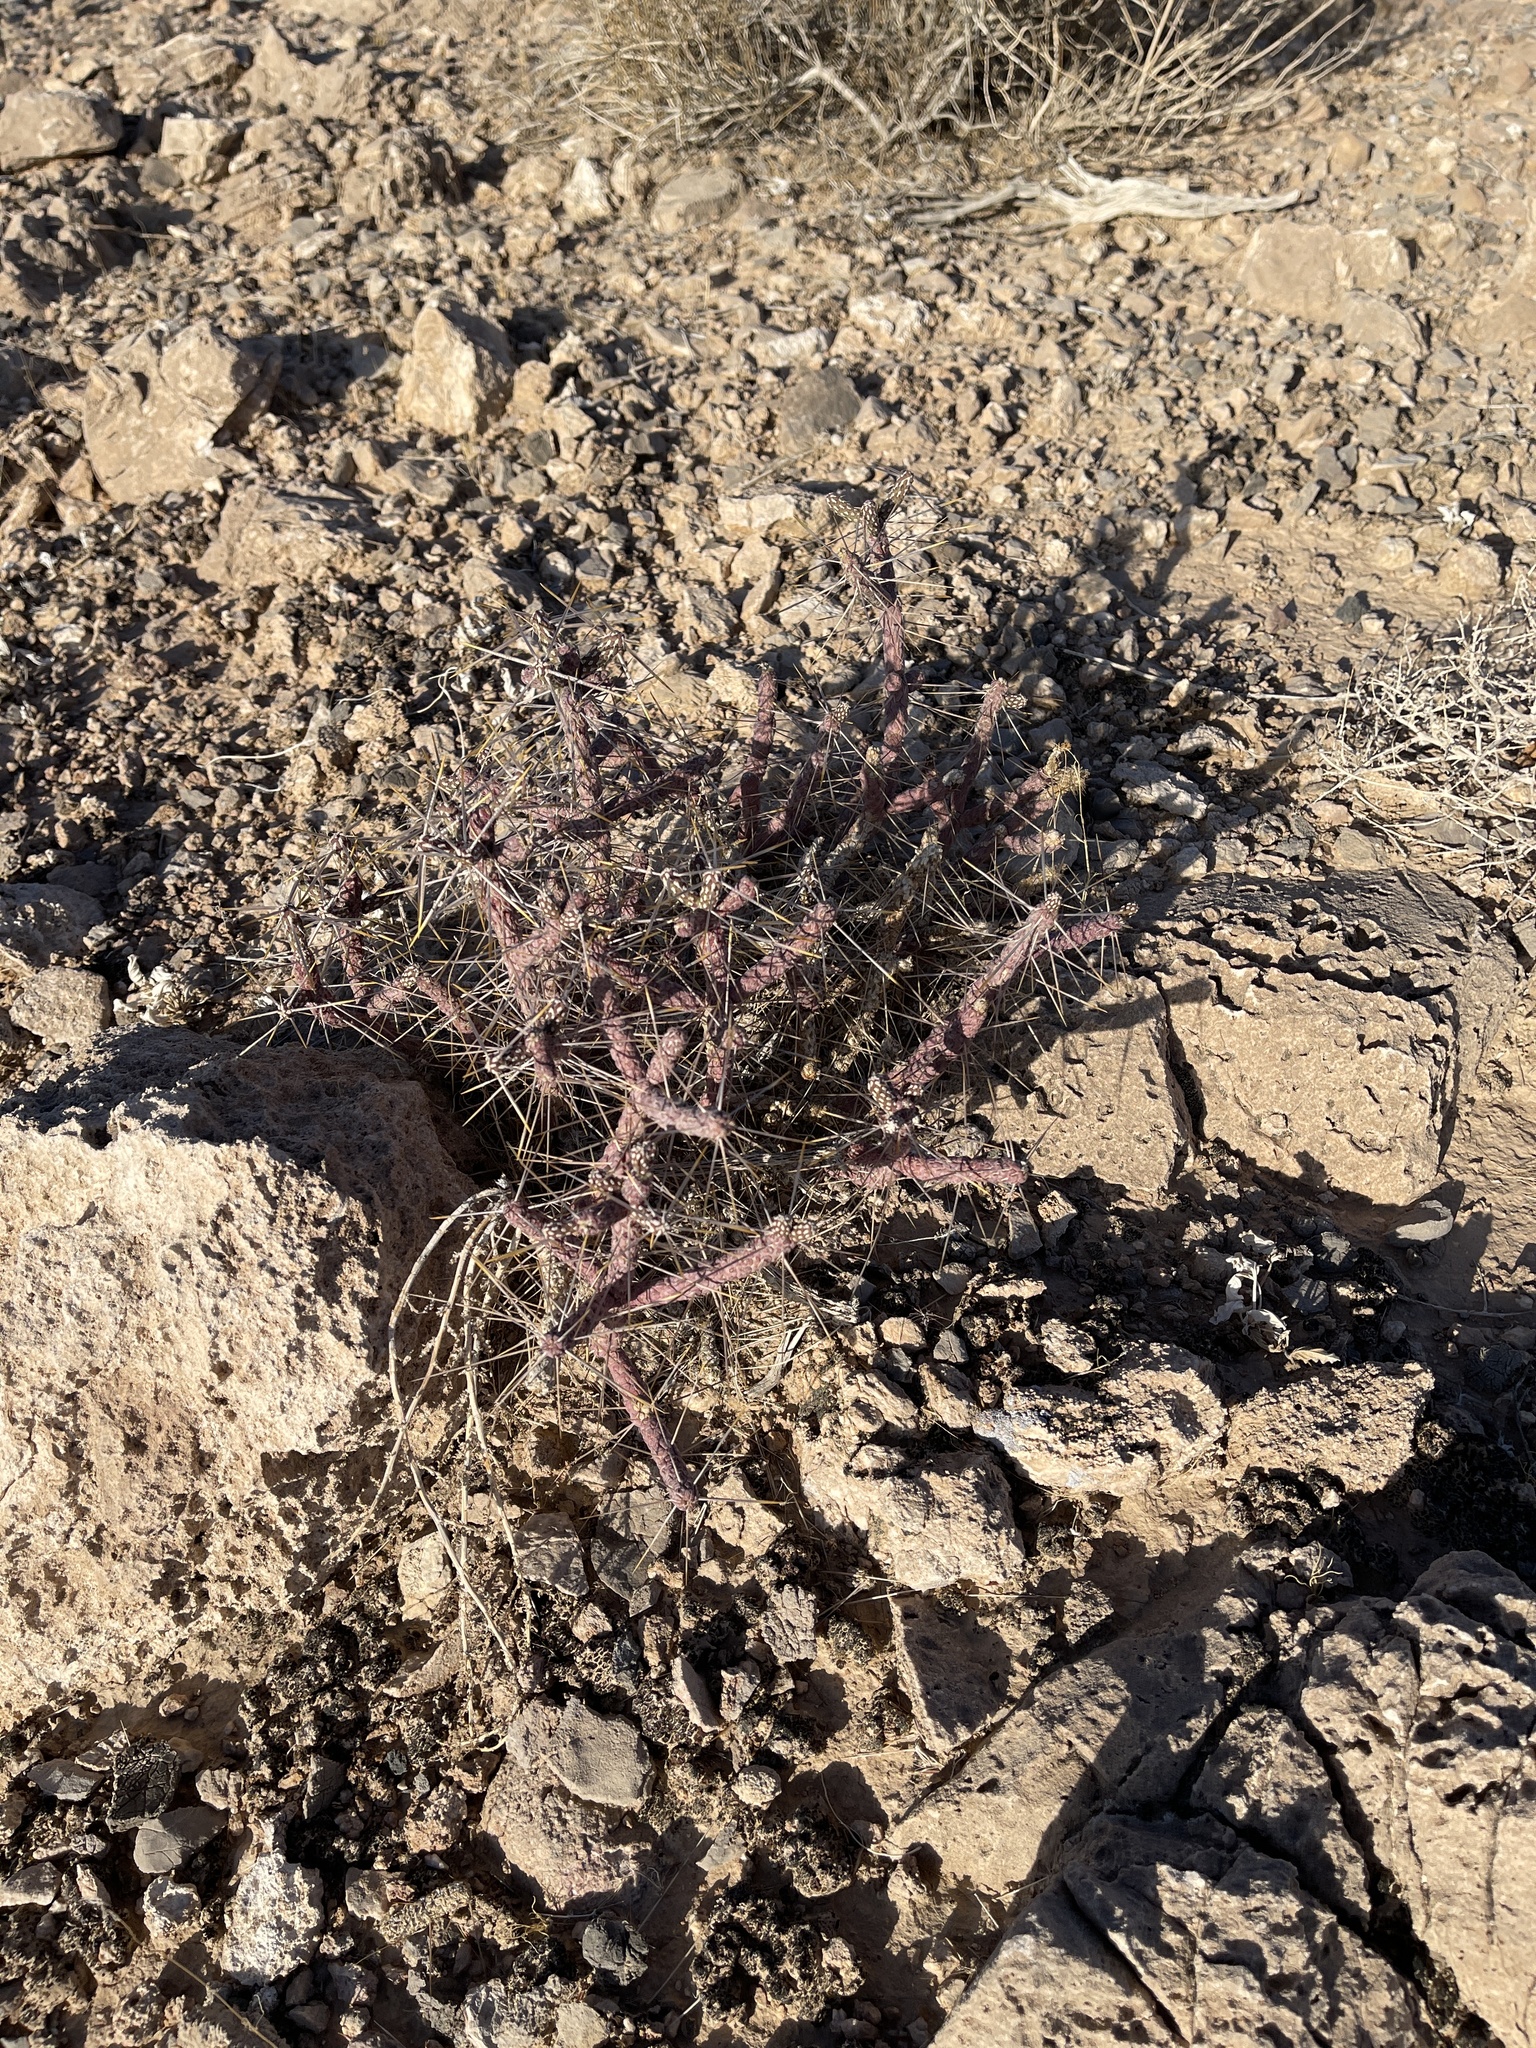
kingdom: Plantae
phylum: Tracheophyta
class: Magnoliopsida
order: Caryophyllales
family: Cactaceae
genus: Cylindropuntia
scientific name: Cylindropuntia ramosissima
